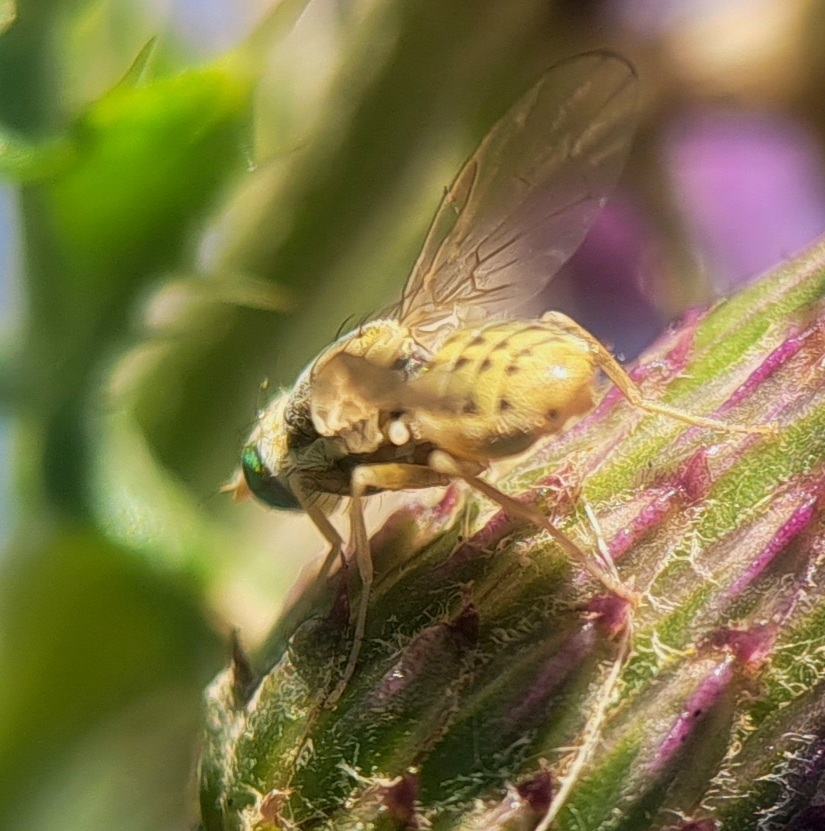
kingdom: Animalia
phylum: Arthropoda
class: Insecta
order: Diptera
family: Tephritidae
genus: Terellia
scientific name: Terellia serratulae
